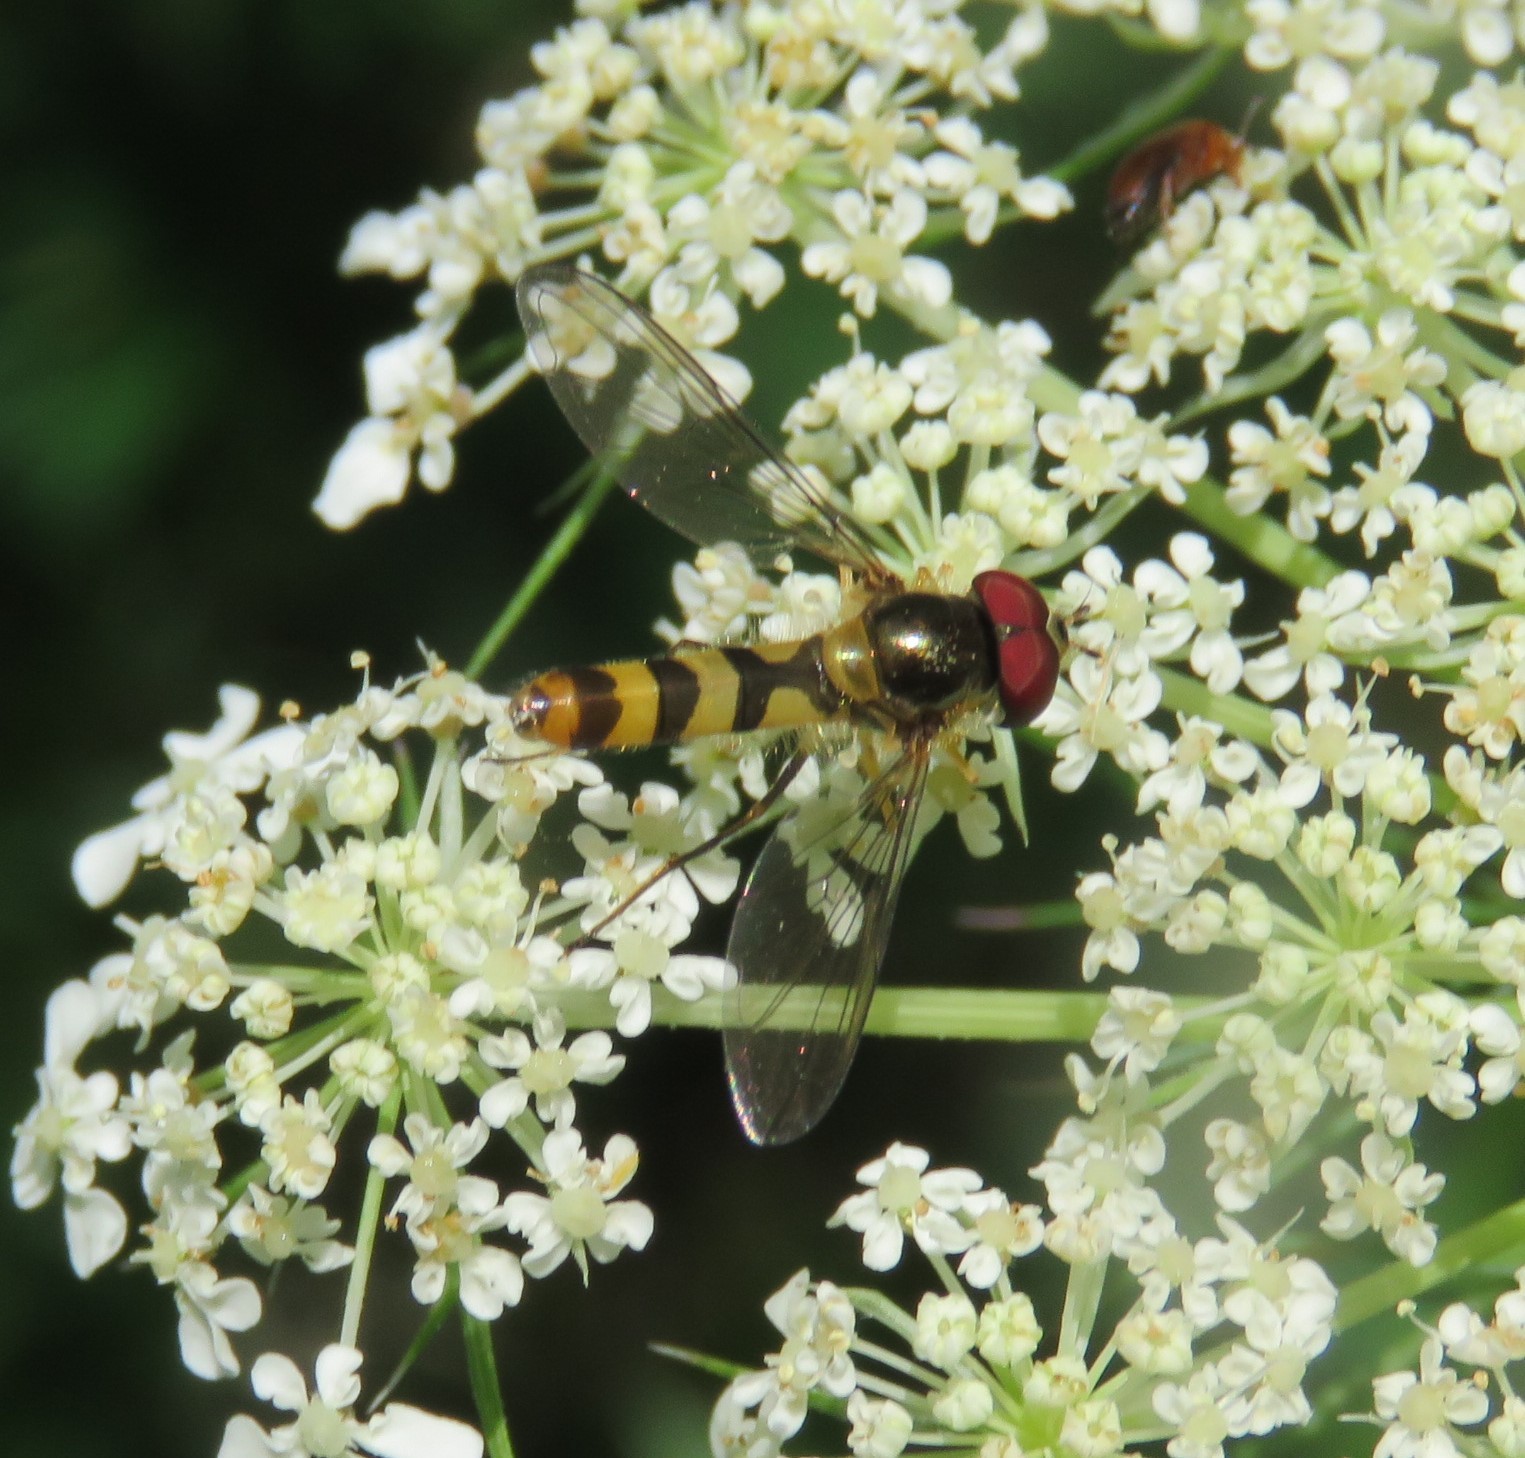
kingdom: Animalia
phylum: Arthropoda
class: Insecta
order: Diptera
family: Syrphidae
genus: Meliscaeva
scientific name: Meliscaeva cinctella
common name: American thintail fly
